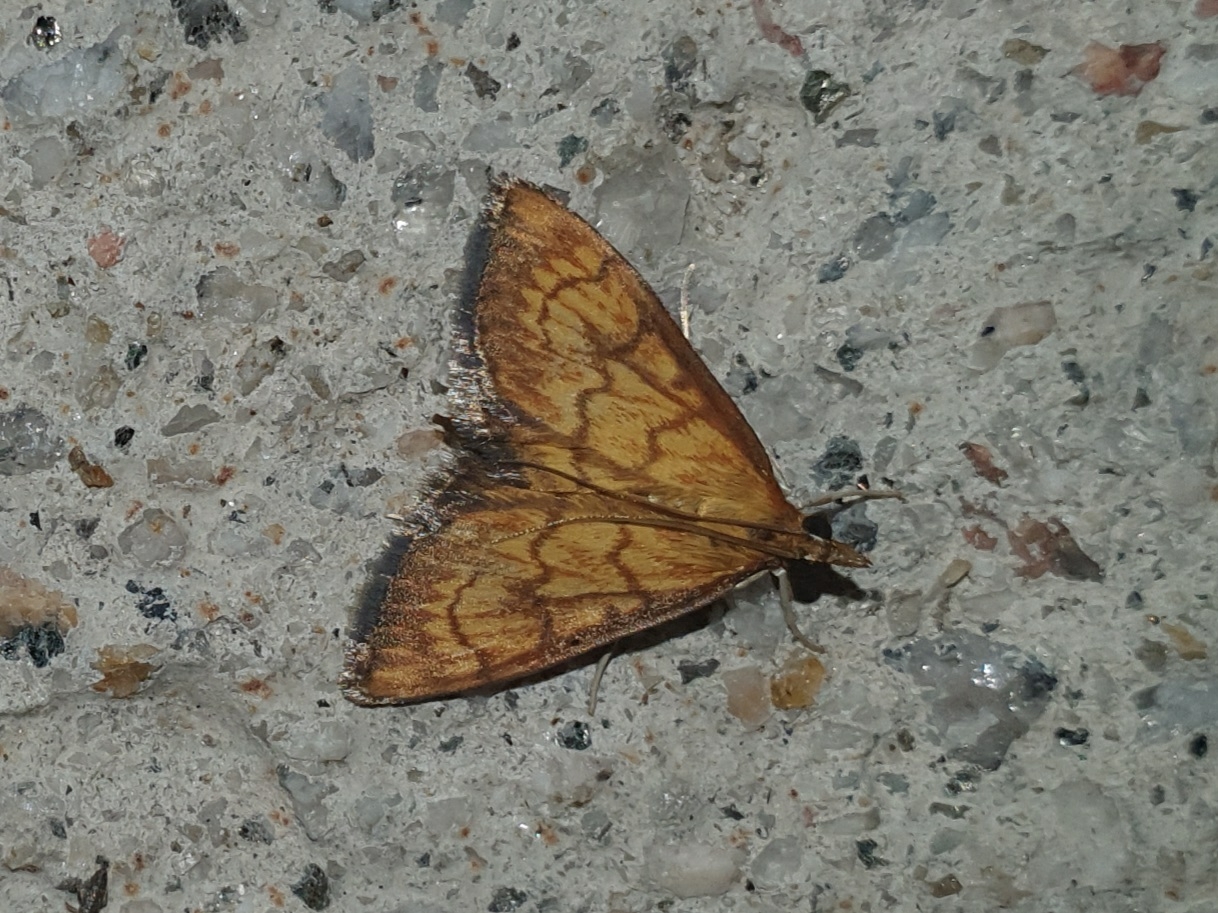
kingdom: Animalia
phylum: Arthropoda
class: Insecta
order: Lepidoptera
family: Crambidae
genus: Ecpyrrhorrhoe
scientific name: Ecpyrrhorrhoe rubiginalis
